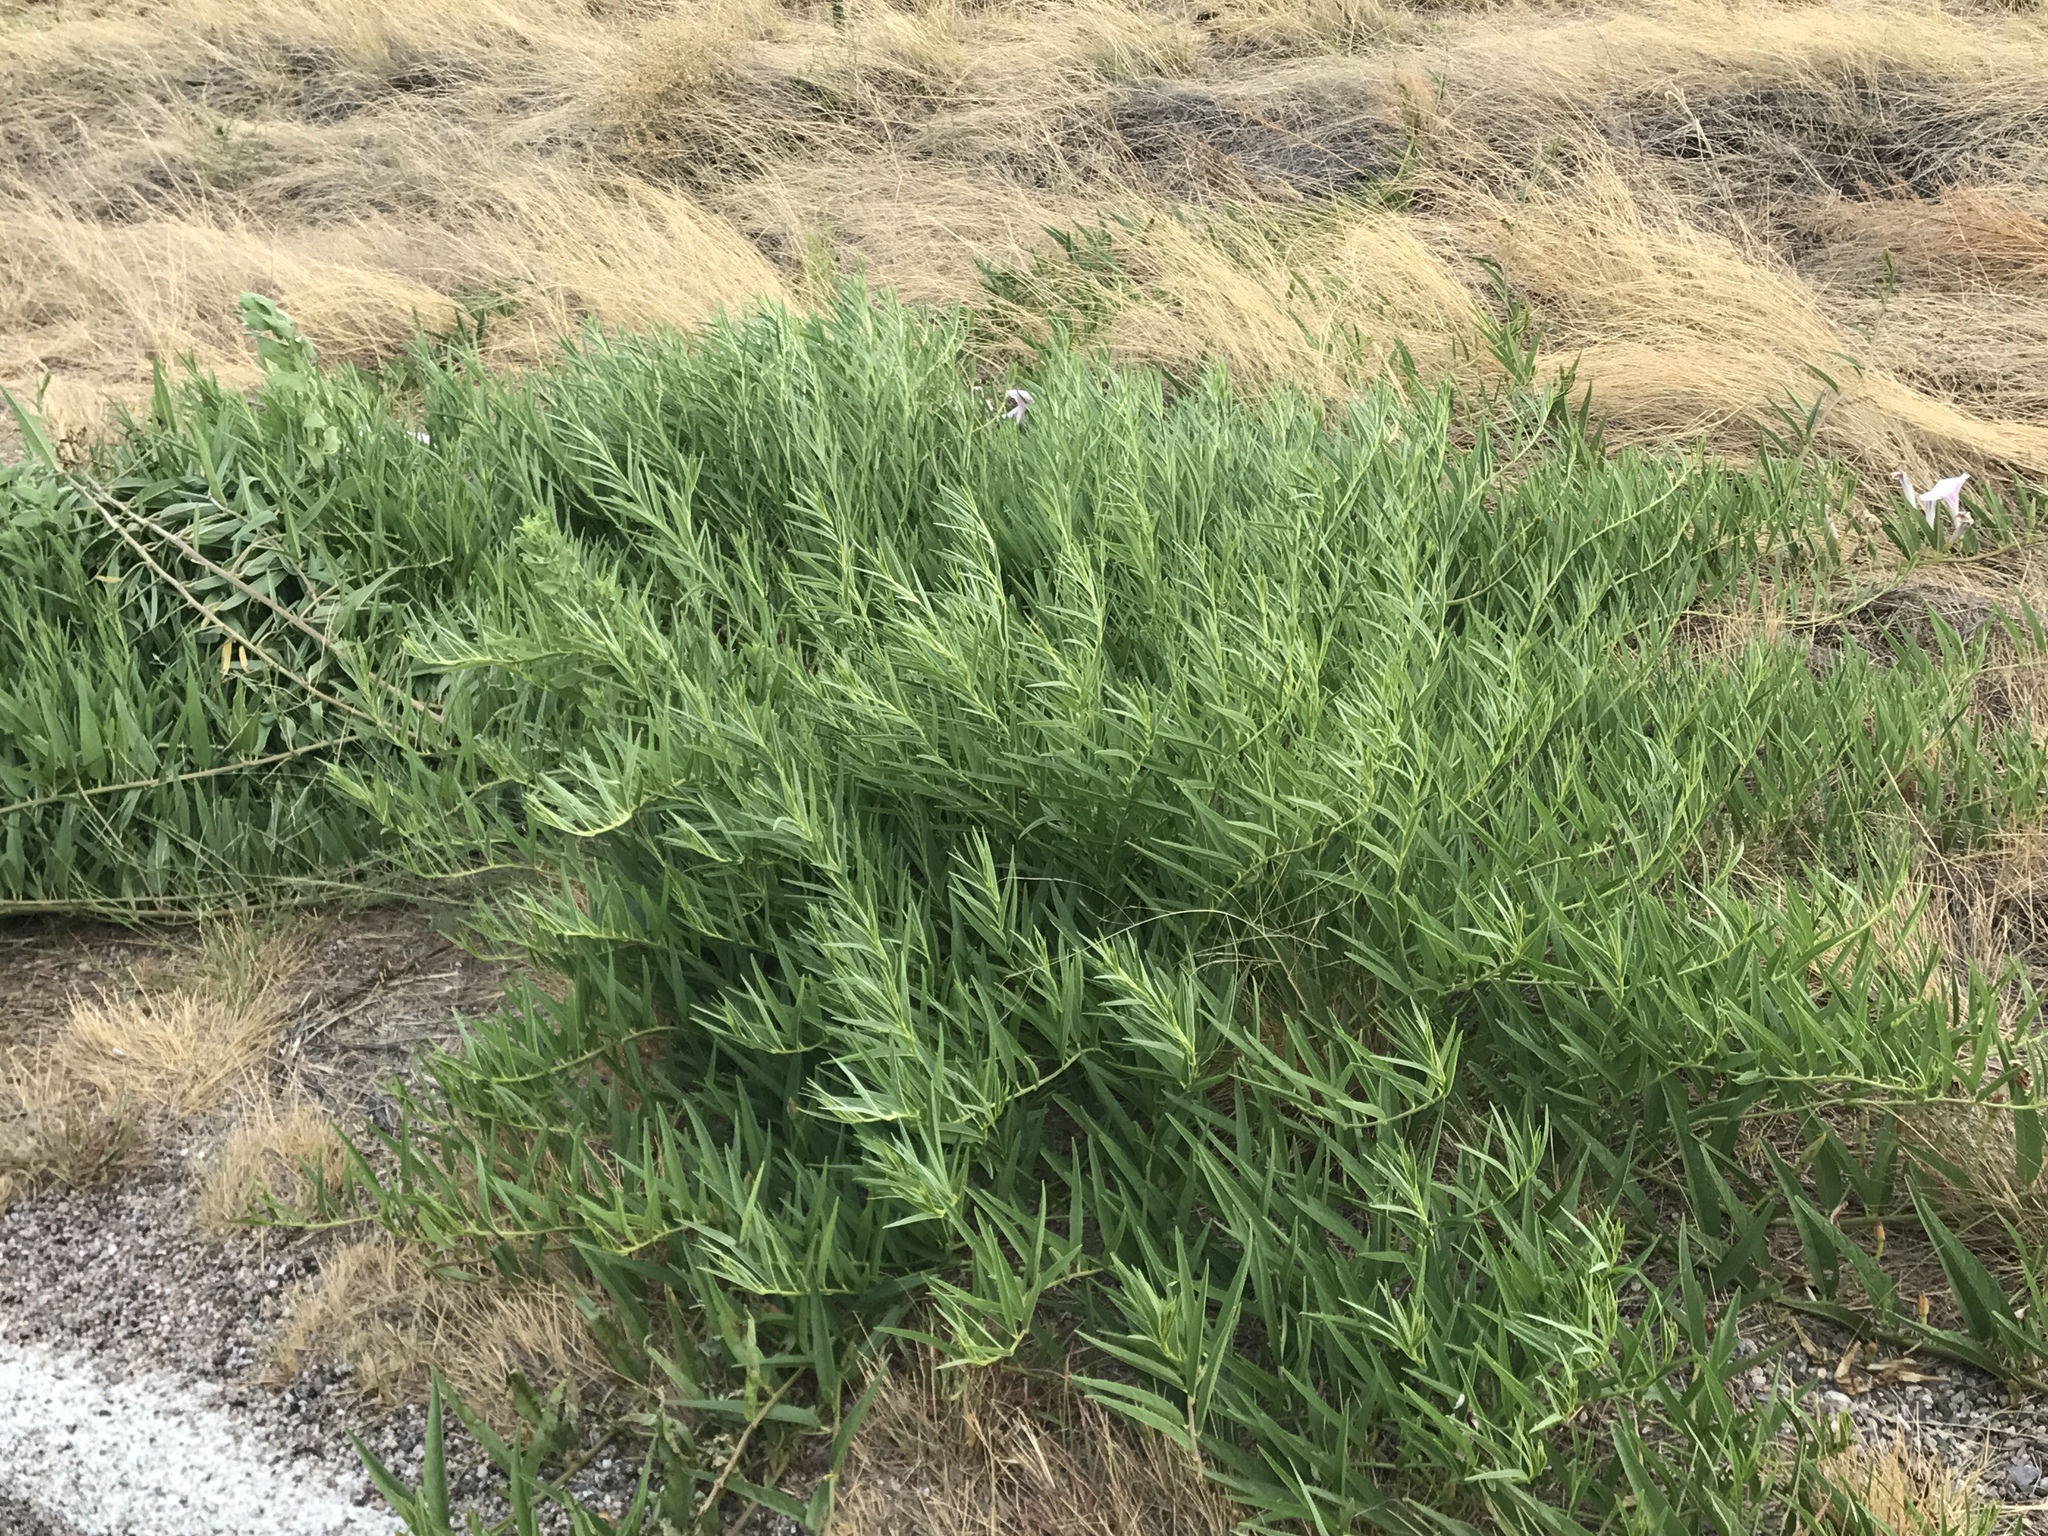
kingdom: Plantae
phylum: Tracheophyta
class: Magnoliopsida
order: Solanales
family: Convolvulaceae
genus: Ipomoea
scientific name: Ipomoea longifolia
